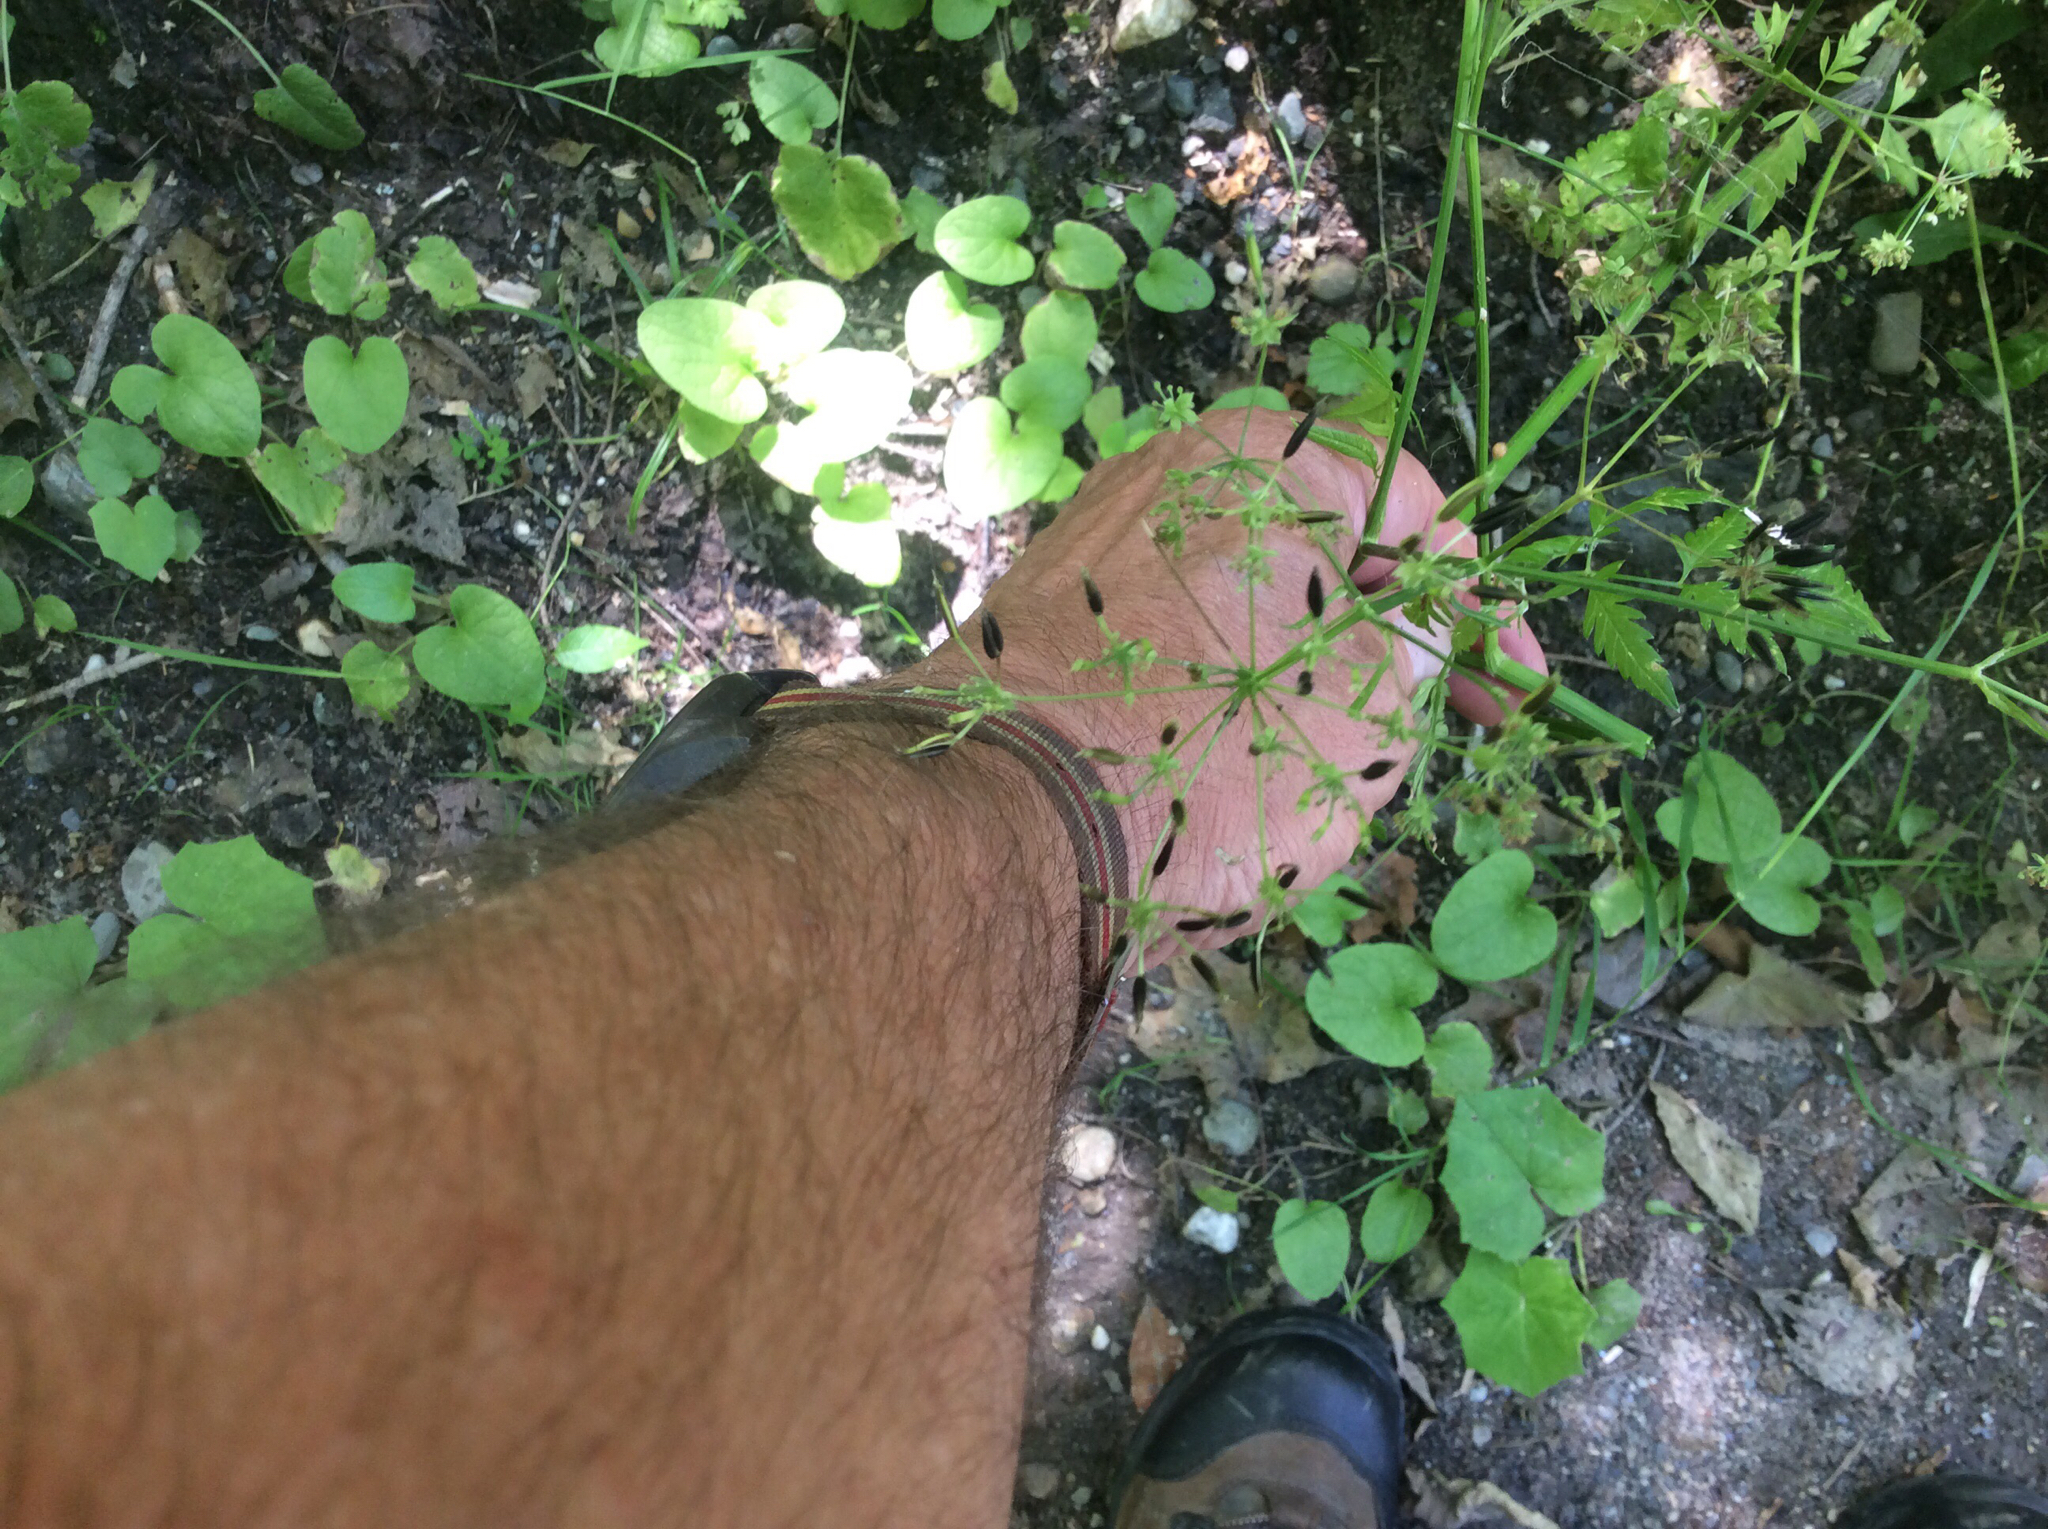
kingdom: Plantae
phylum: Tracheophyta
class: Magnoliopsida
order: Apiales
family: Apiaceae
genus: Anthriscus
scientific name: Anthriscus sylvestris
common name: Cow parsley
